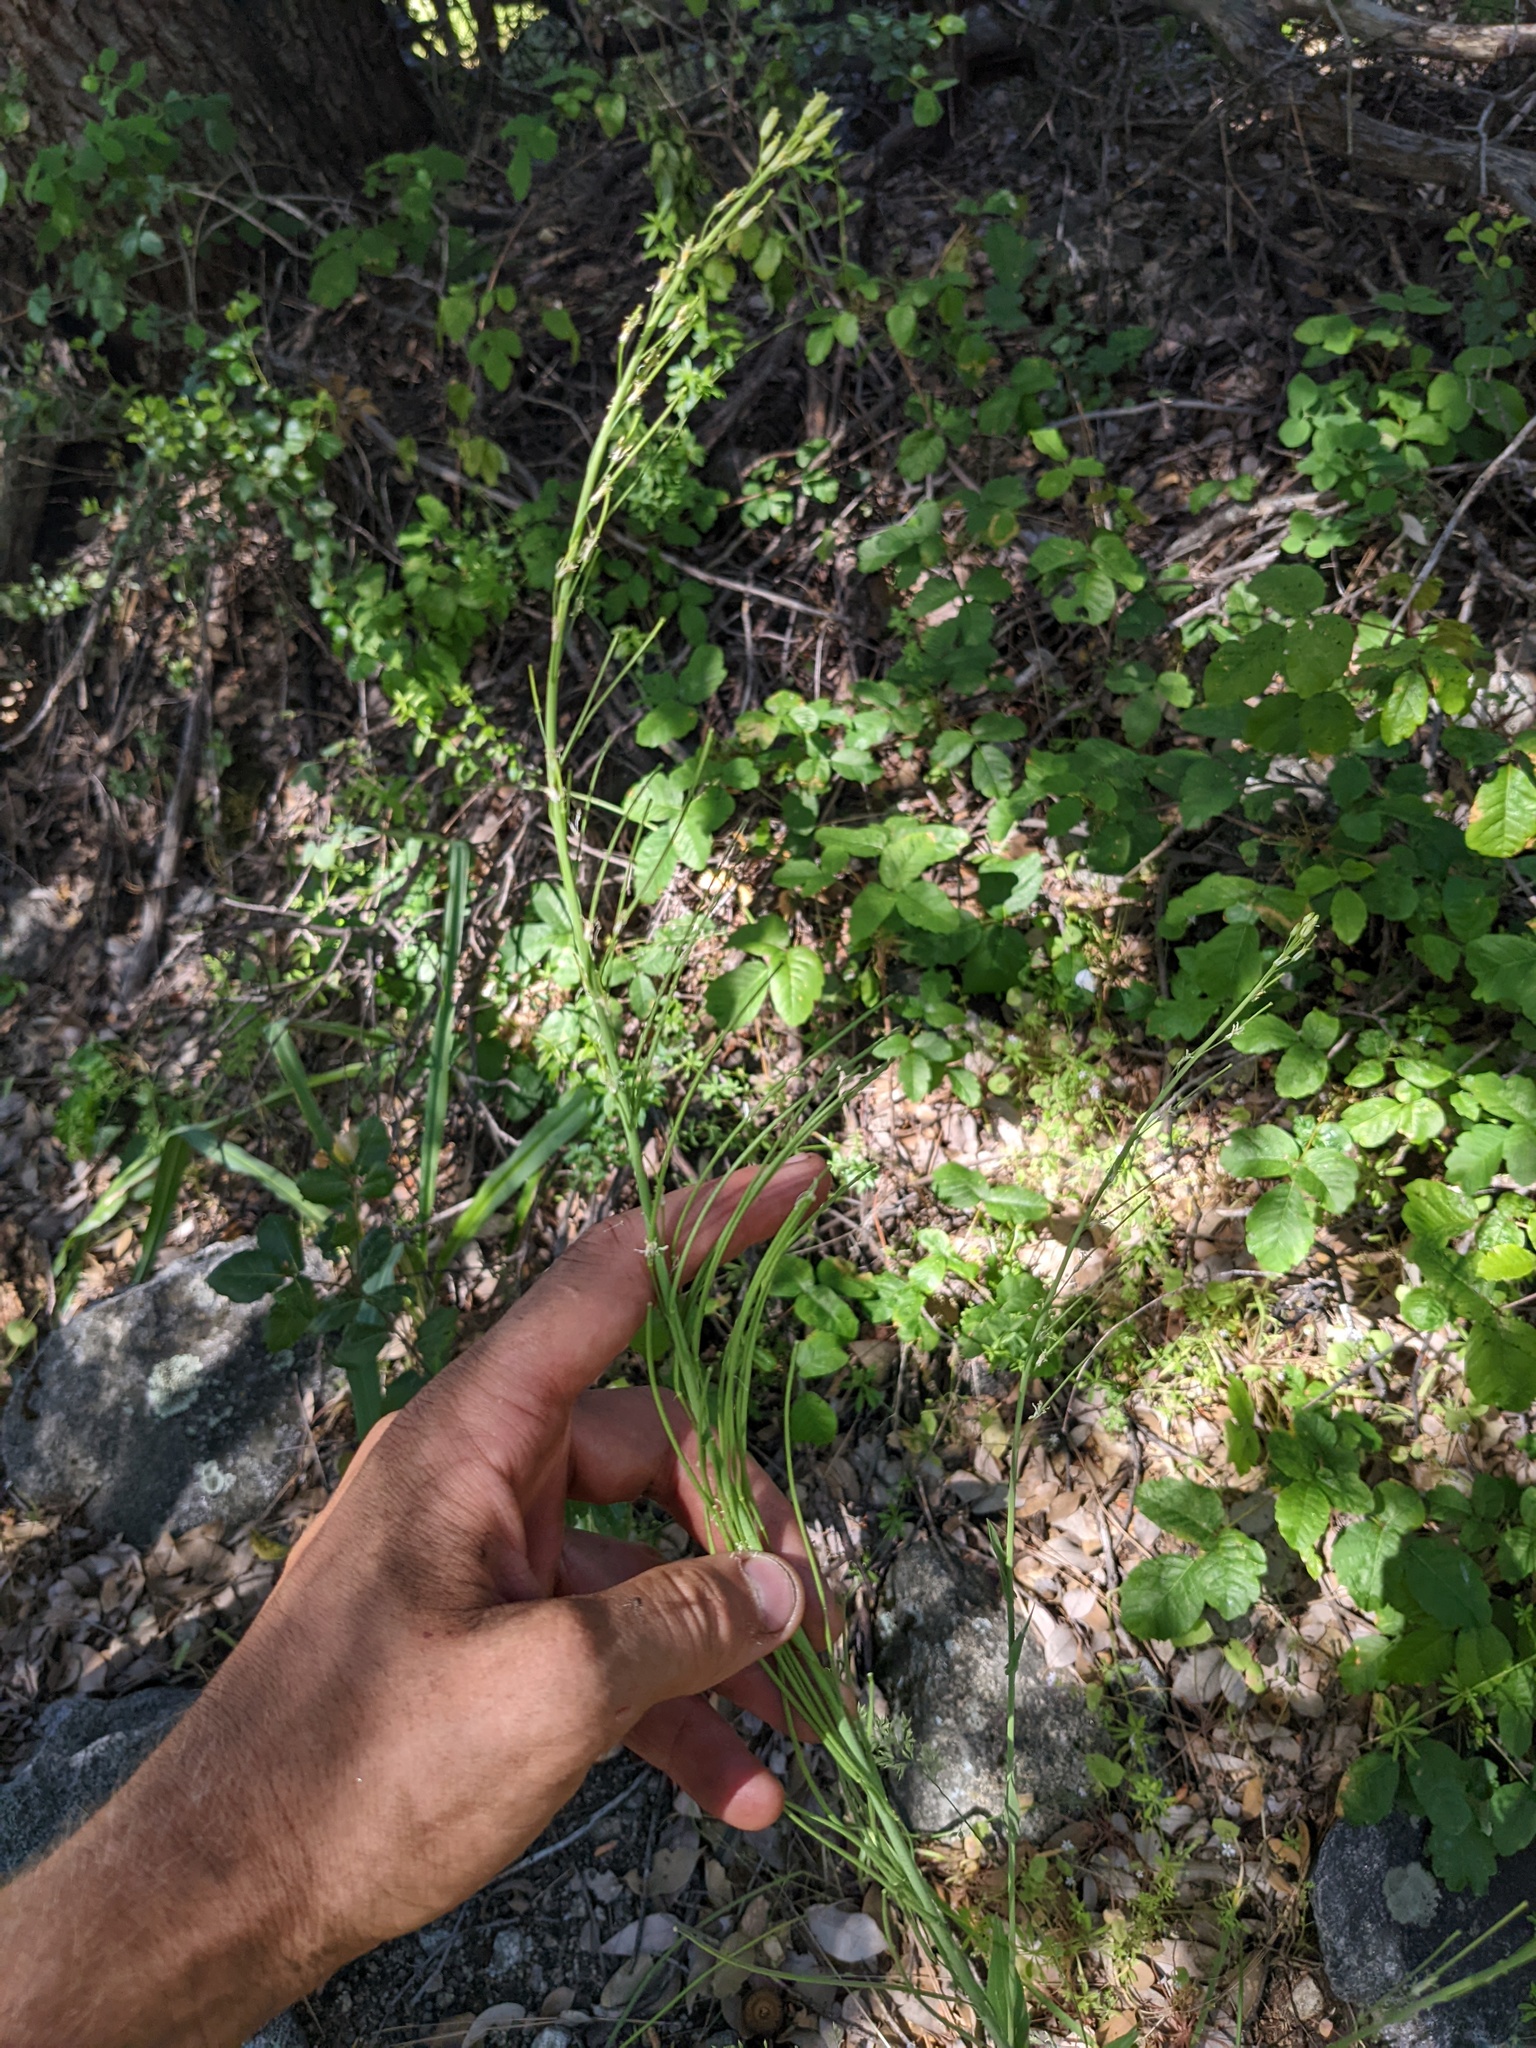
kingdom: Plantae
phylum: Tracheophyta
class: Magnoliopsida
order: Brassicales
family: Brassicaceae
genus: Turritis
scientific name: Turritis glabra
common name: Tower rockcress
